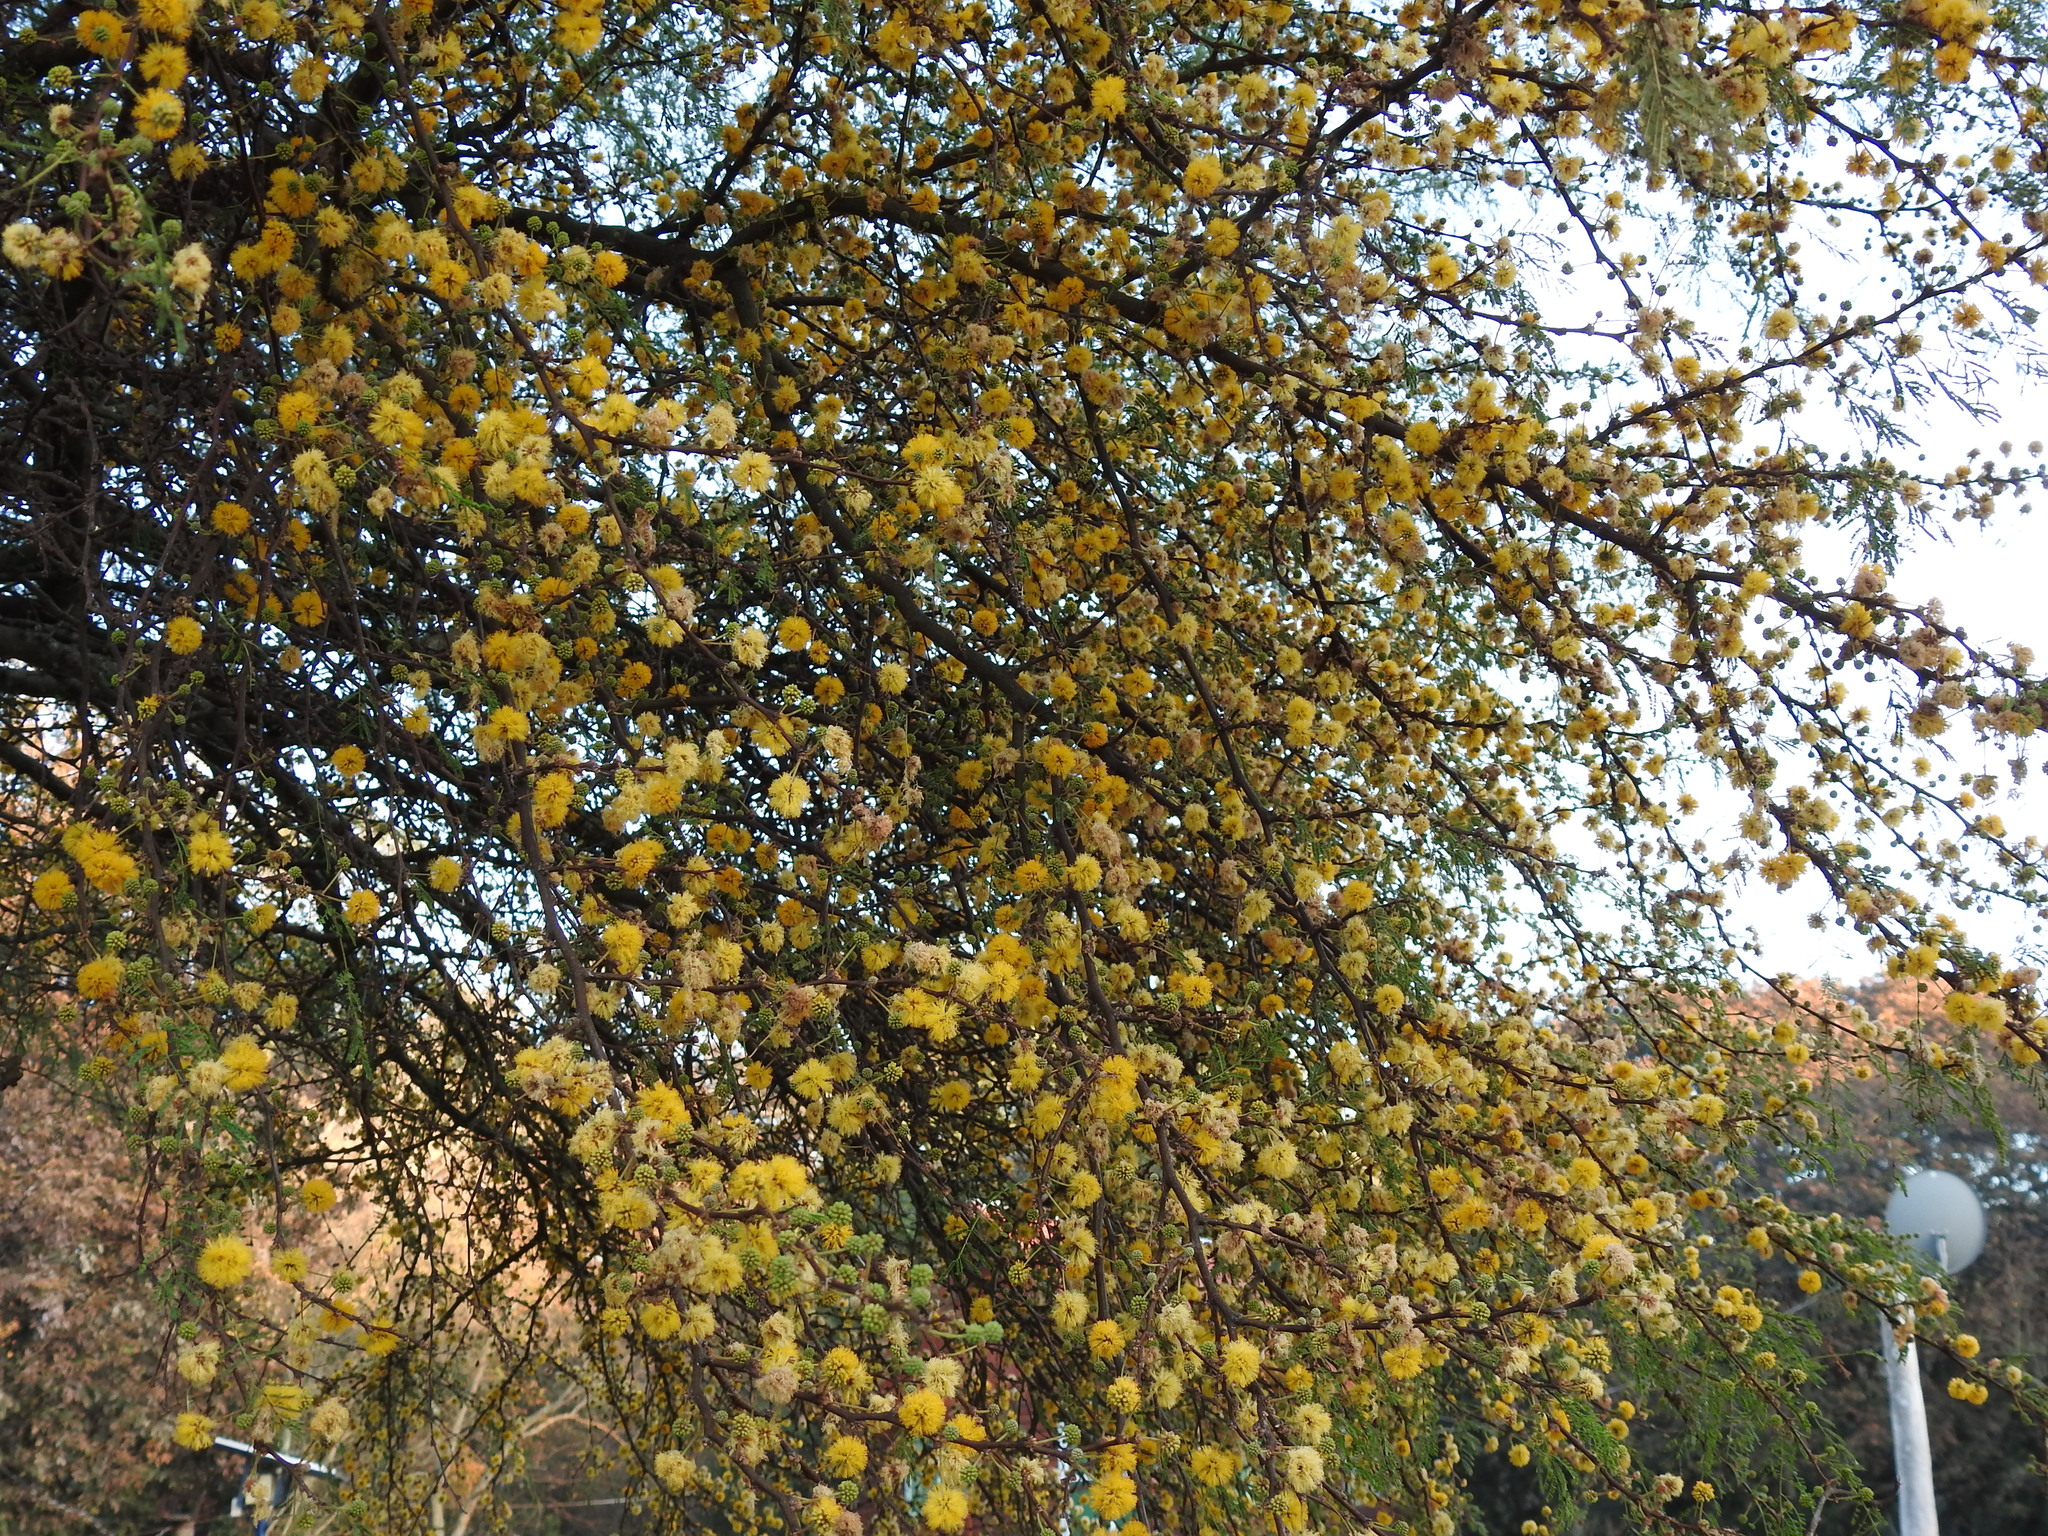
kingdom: Plantae
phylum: Tracheophyta
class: Magnoliopsida
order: Fabales
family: Fabaceae
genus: Vachellia
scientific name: Vachellia caven
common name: Roman cassie
